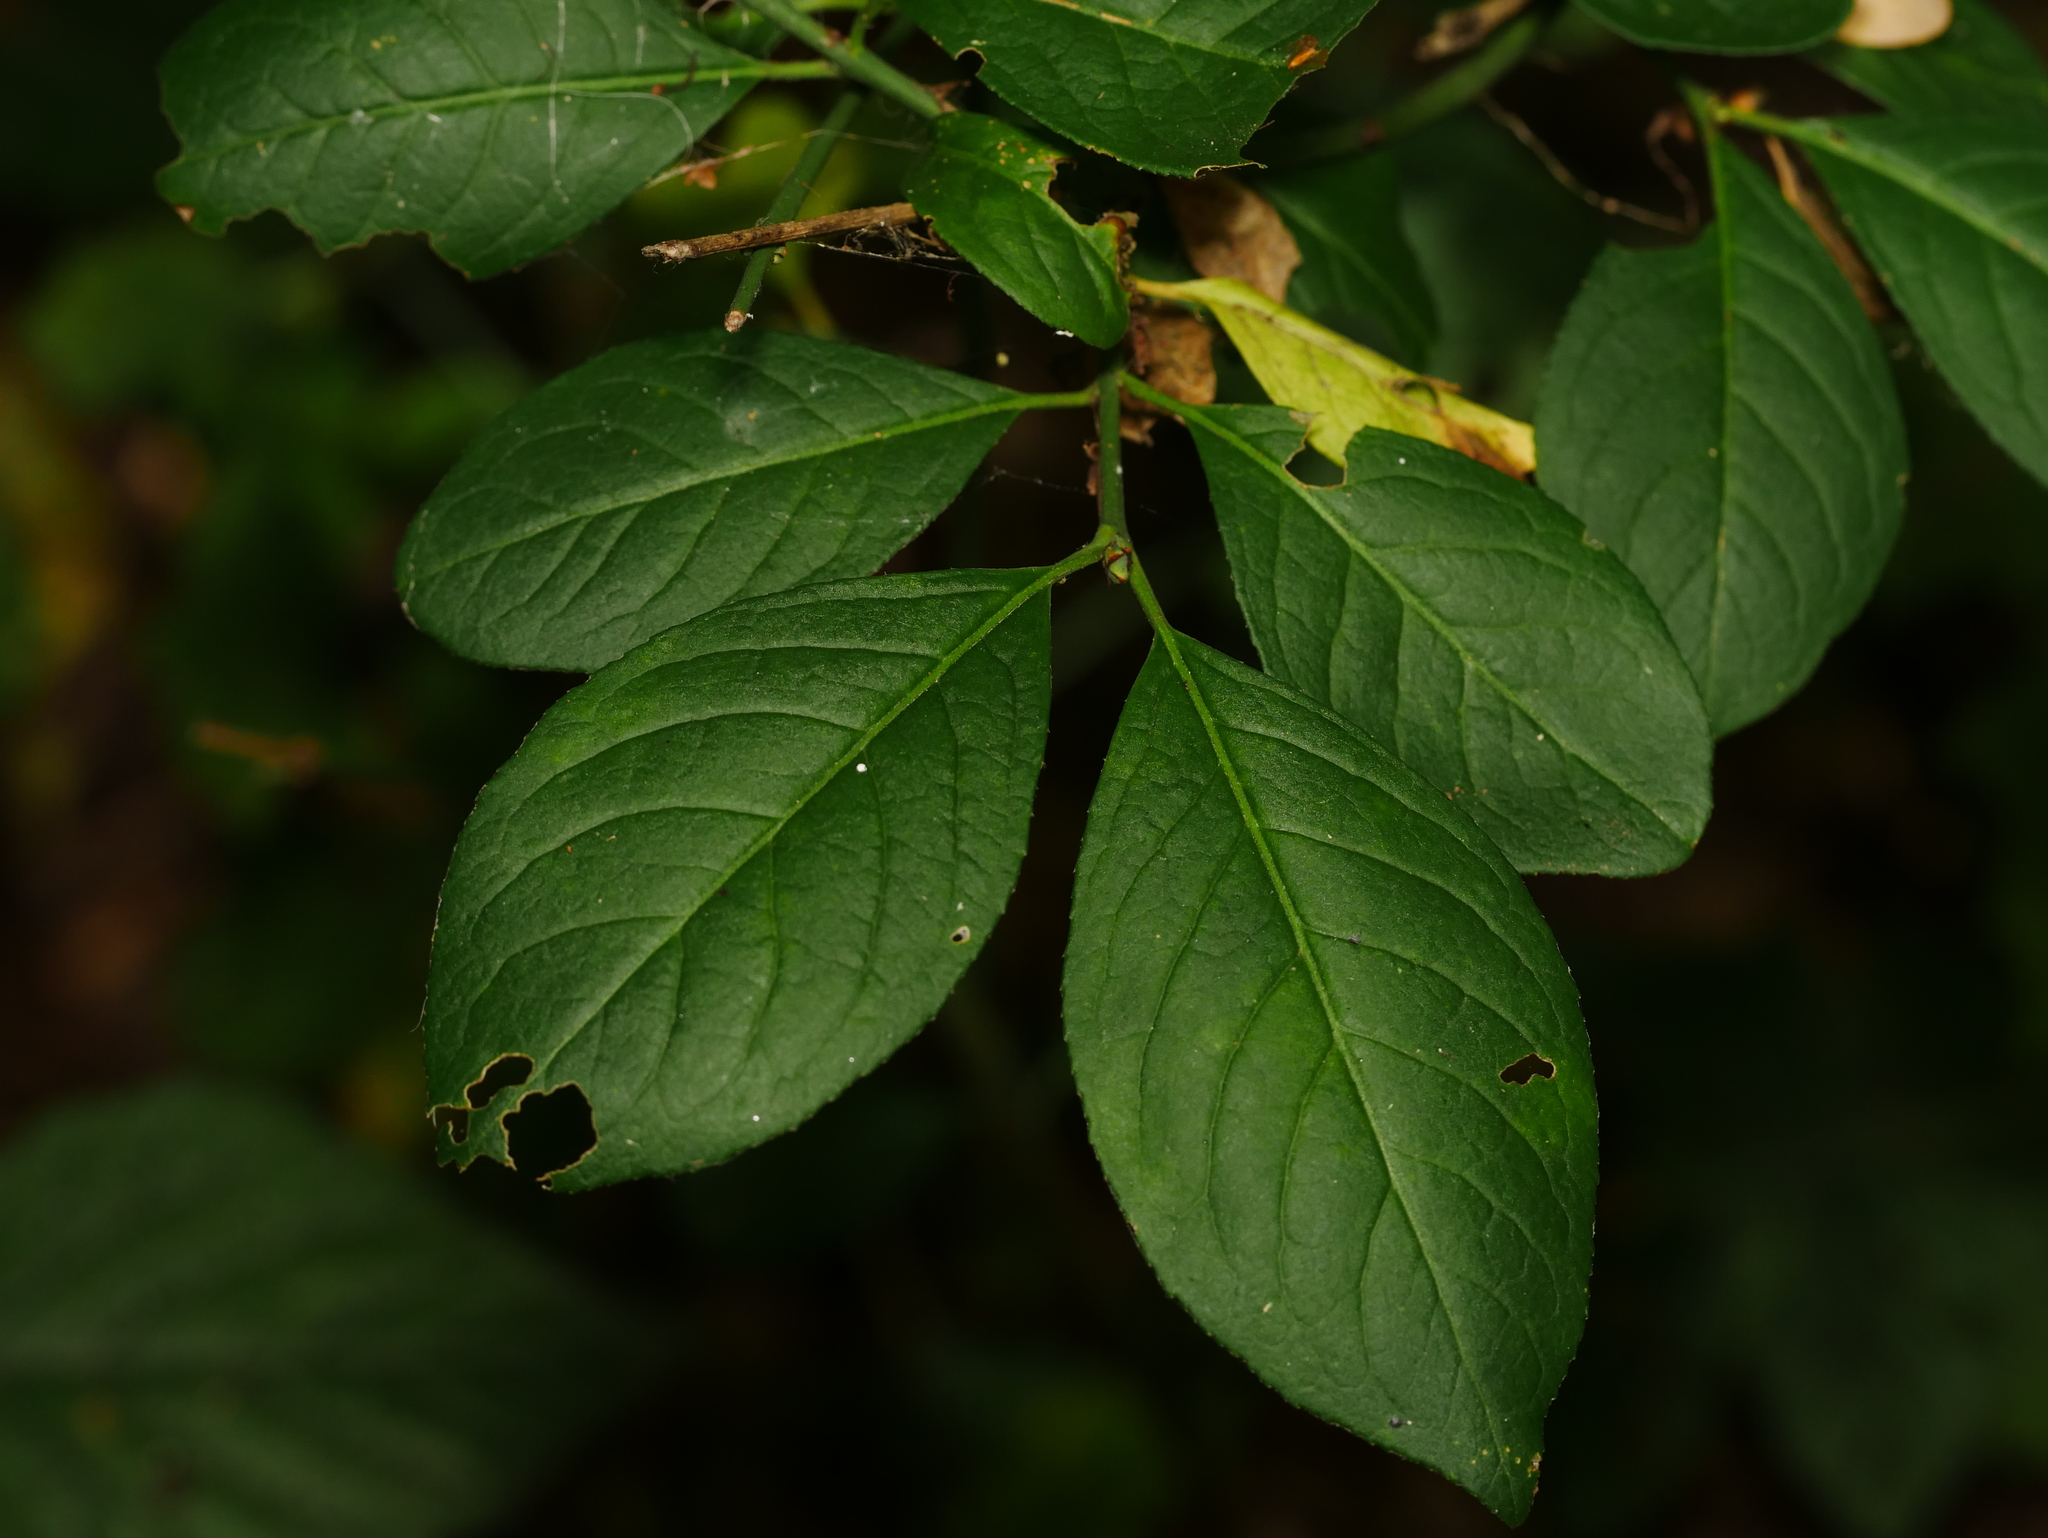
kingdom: Plantae
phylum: Tracheophyta
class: Magnoliopsida
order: Celastrales
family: Celastraceae
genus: Euonymus
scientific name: Euonymus europaeus
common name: Spindle
